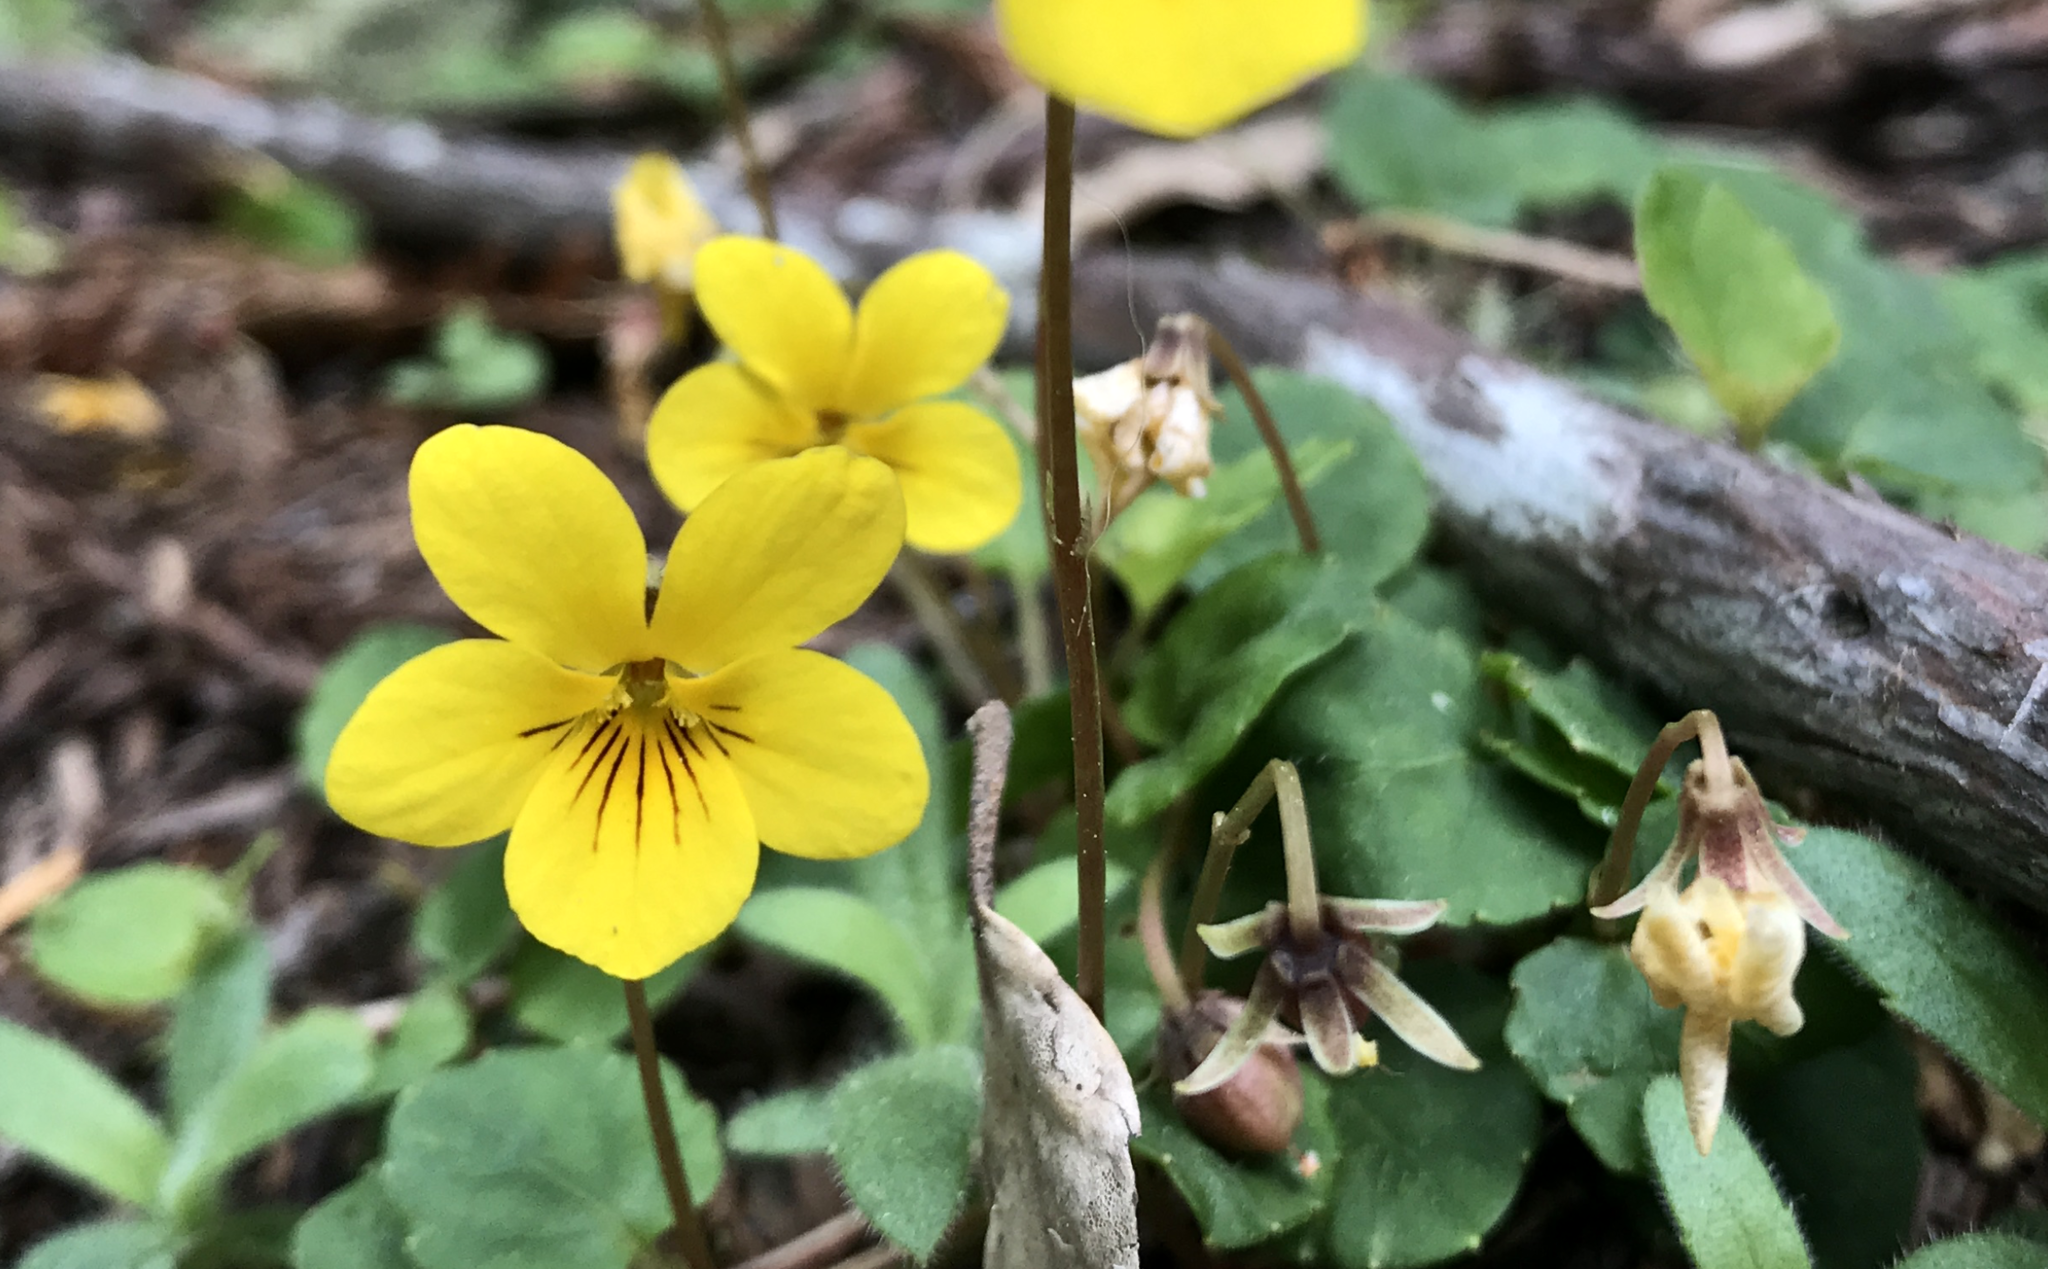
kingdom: Plantae
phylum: Tracheophyta
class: Magnoliopsida
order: Malpighiales
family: Violaceae
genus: Viola
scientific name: Viola sempervirens
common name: Evergreen violet
